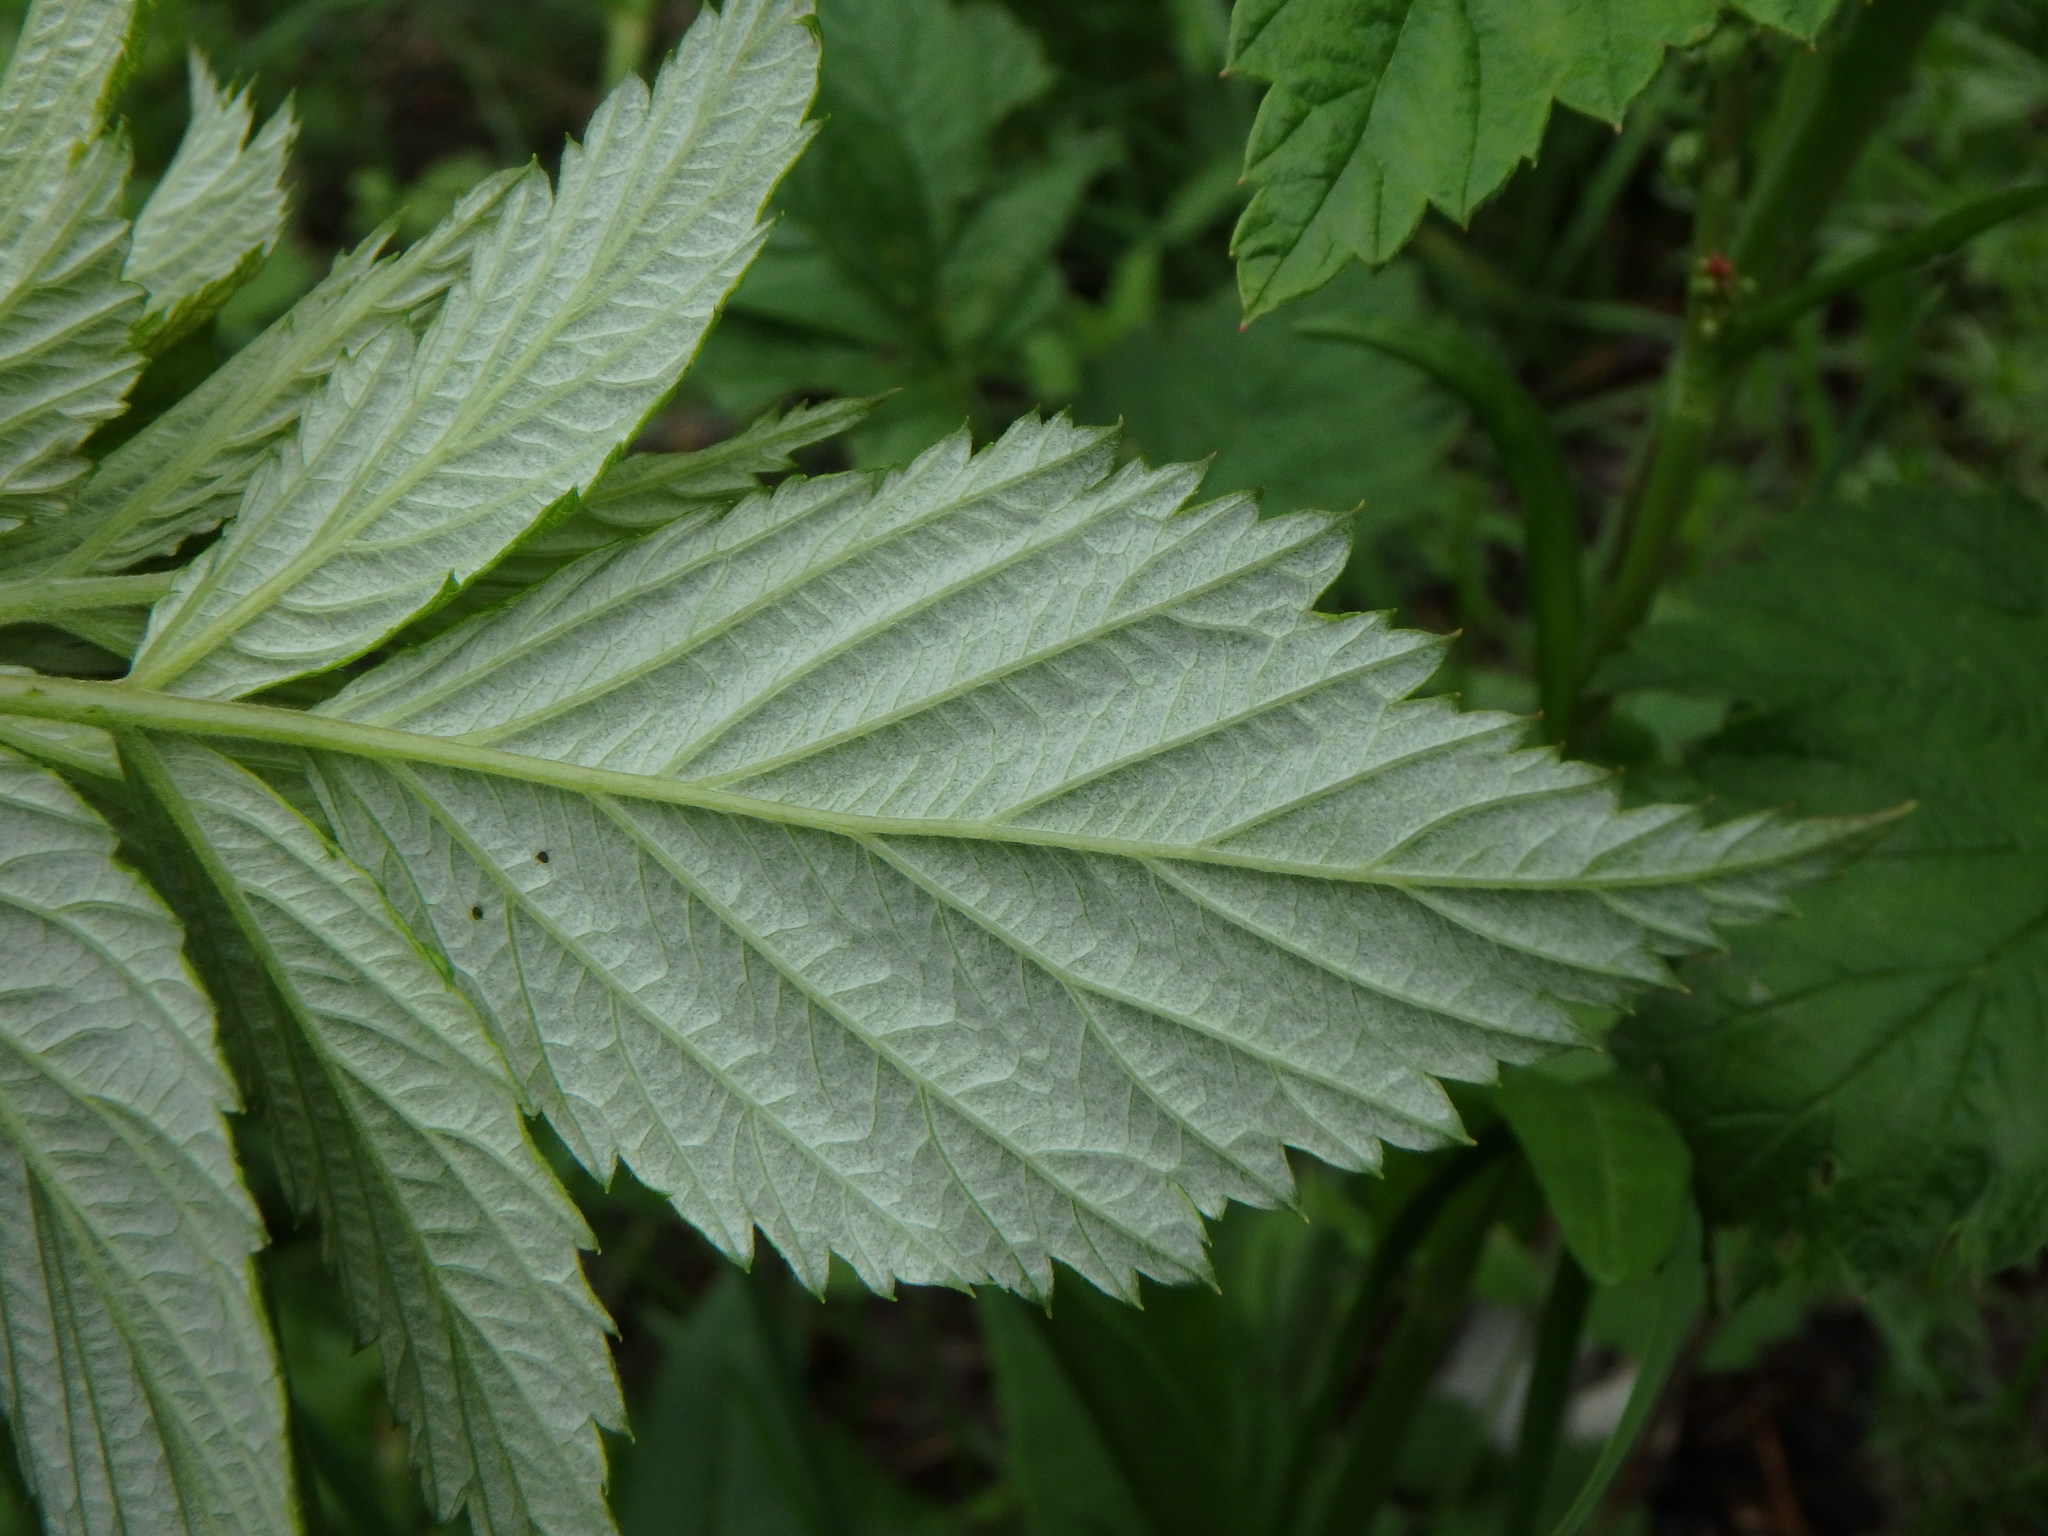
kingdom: Plantae
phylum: Tracheophyta
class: Magnoliopsida
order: Rosales
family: Rosaceae
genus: Rubus
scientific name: Rubus idaeus
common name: Raspberry
